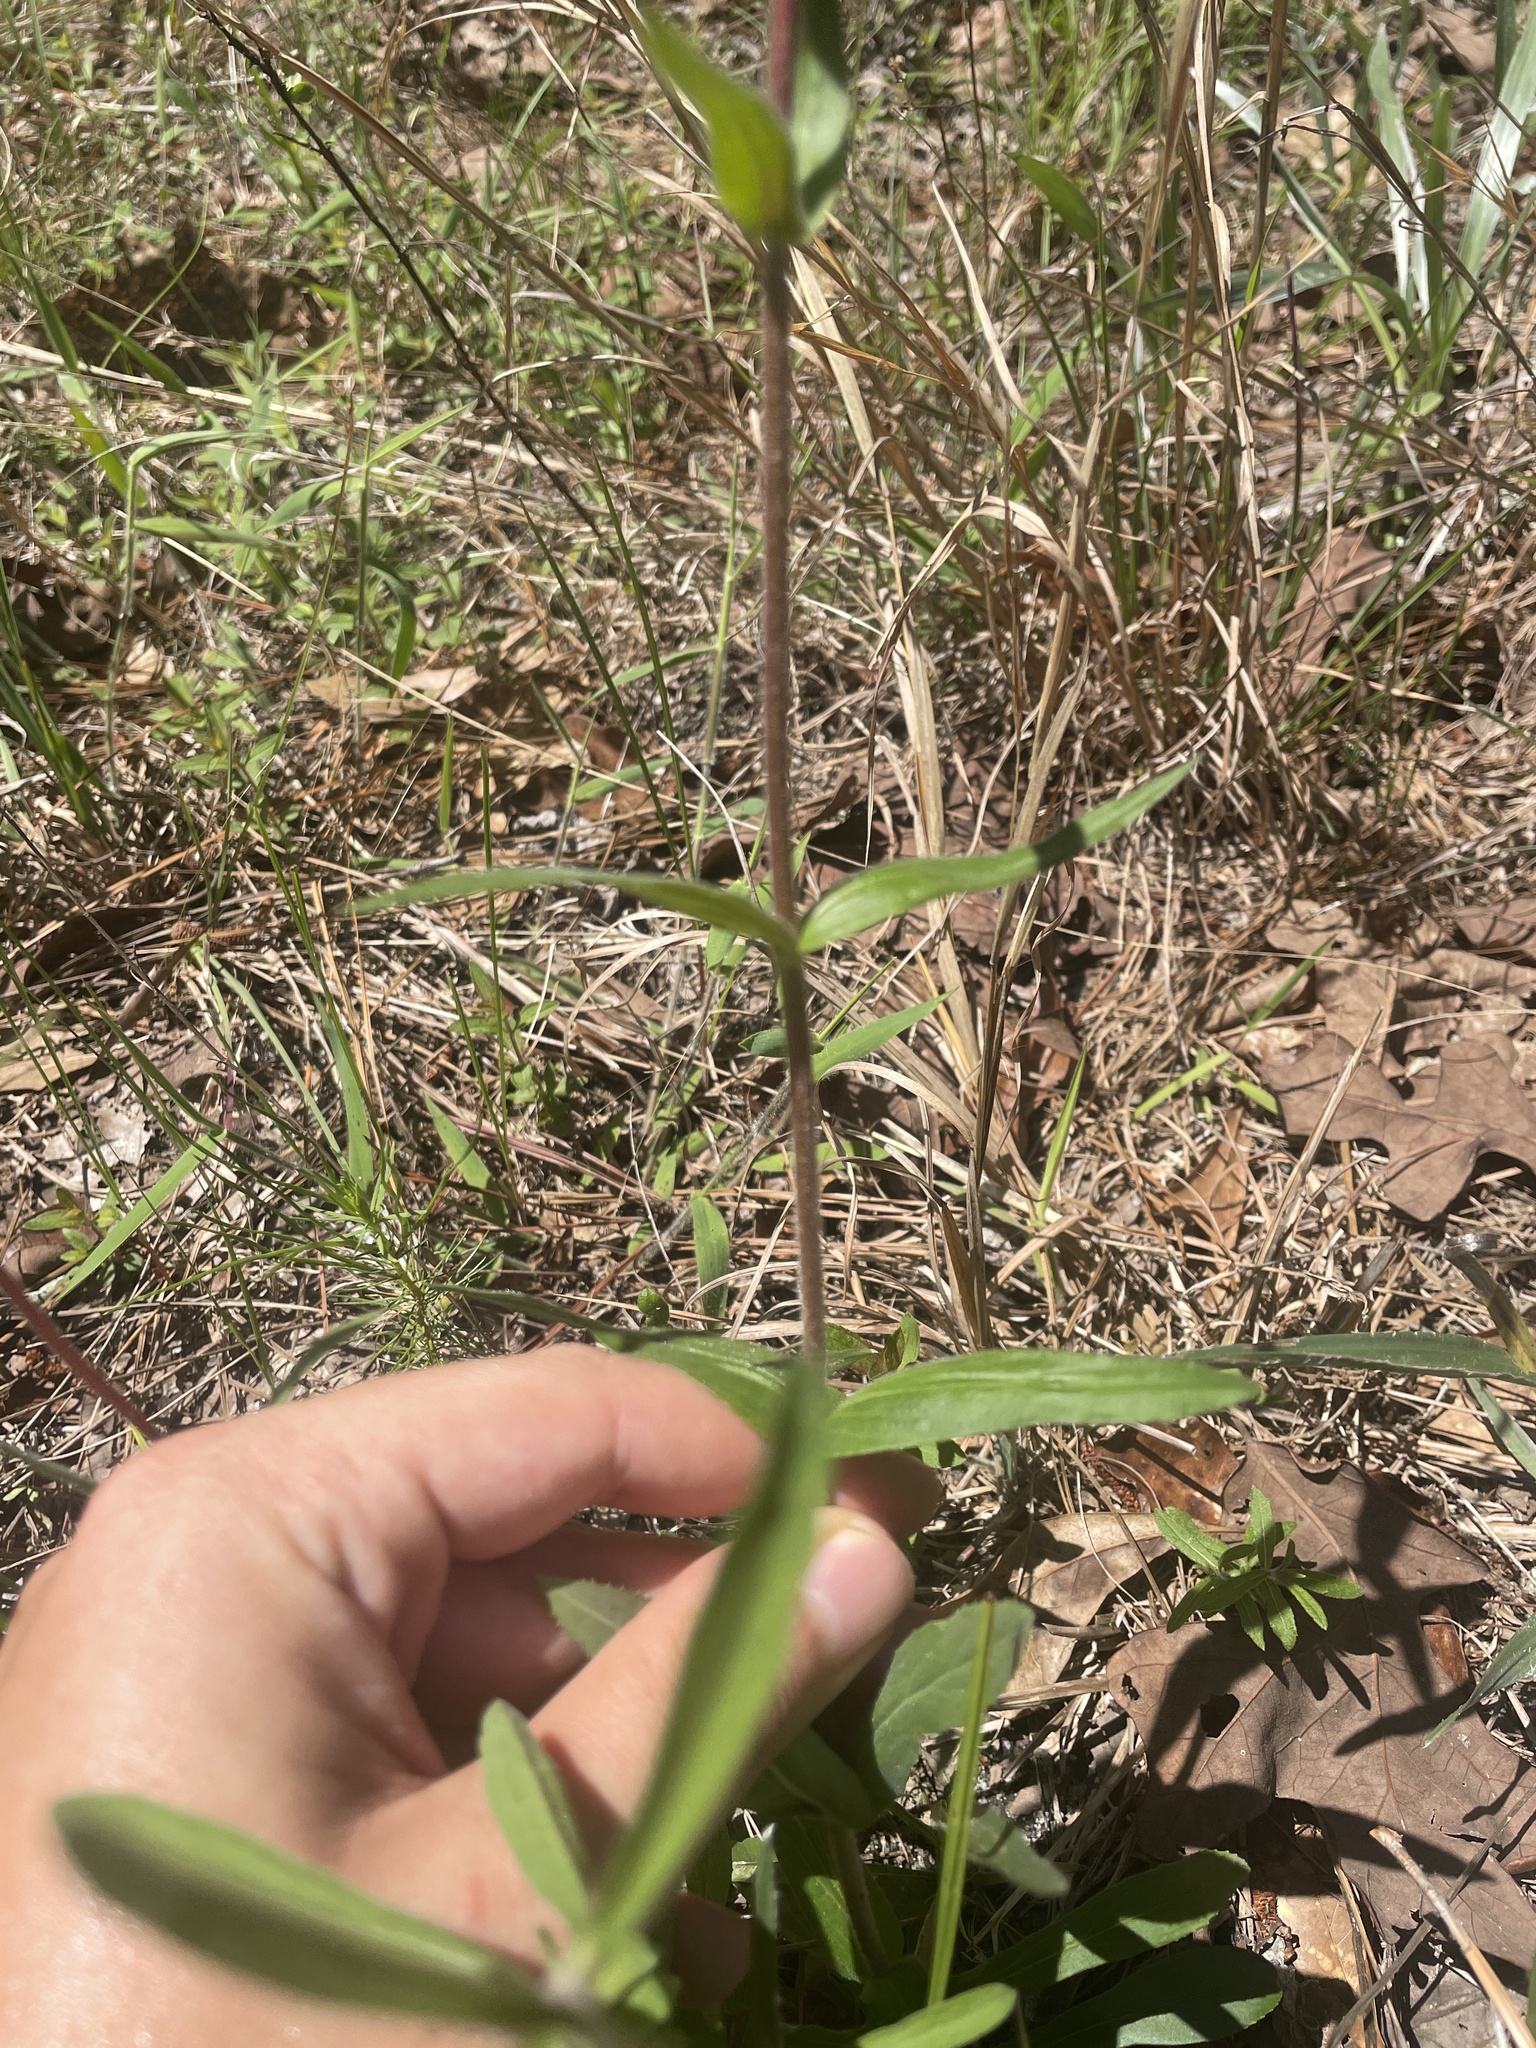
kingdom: Plantae
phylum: Tracheophyta
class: Magnoliopsida
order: Lamiales
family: Plantaginaceae
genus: Penstemon
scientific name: Penstemon australis
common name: Southeastern beardtongue
